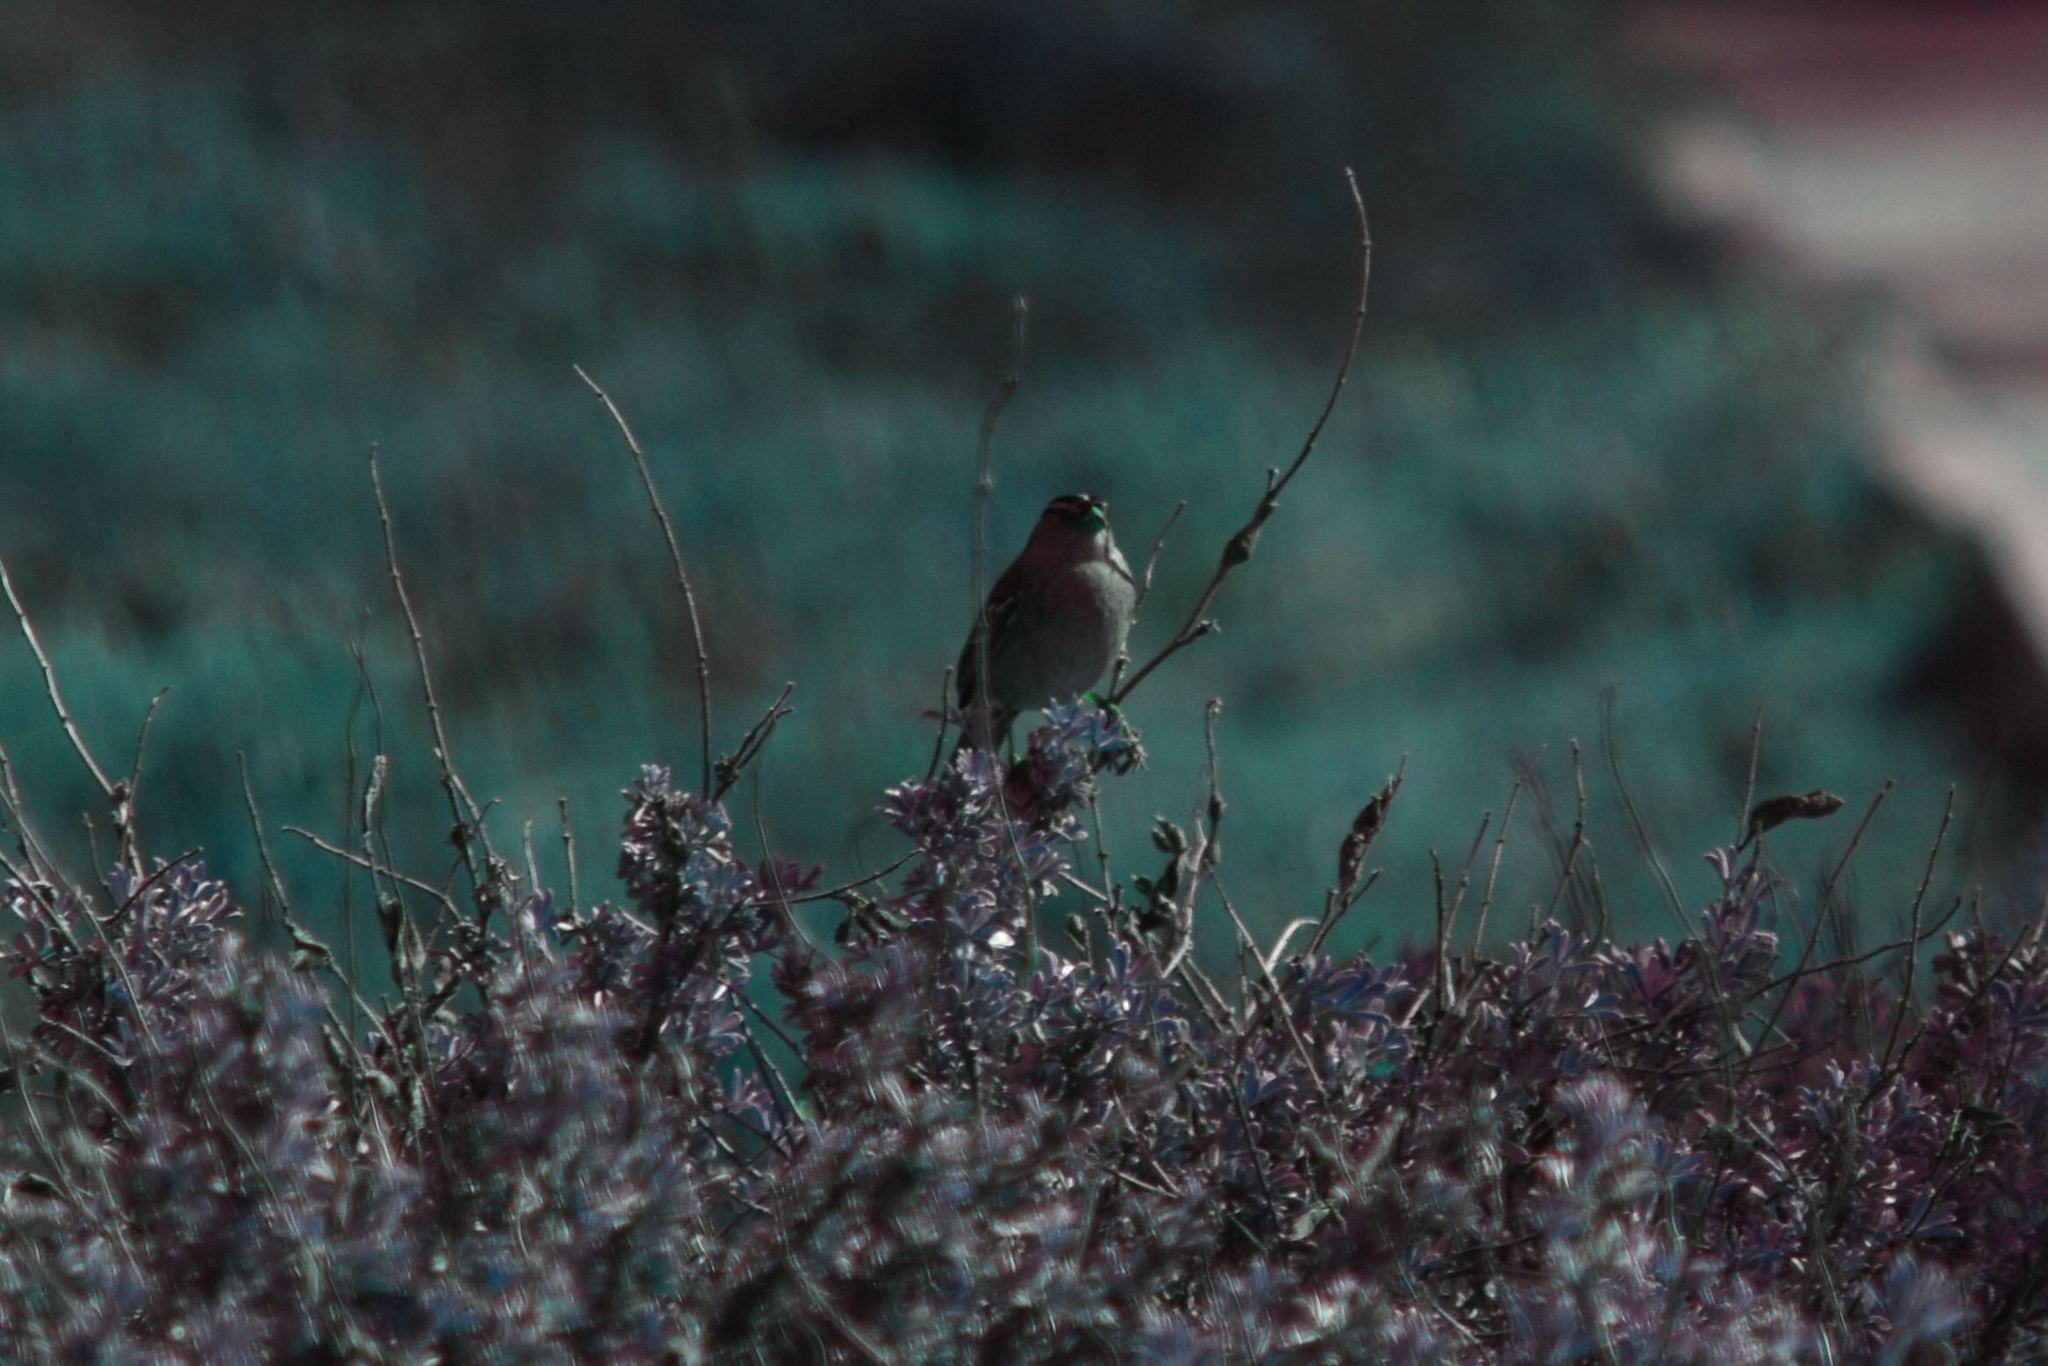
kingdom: Animalia
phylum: Chordata
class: Aves
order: Passeriformes
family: Passerellidae
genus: Zonotrichia
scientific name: Zonotrichia leucophrys
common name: White-crowned sparrow
